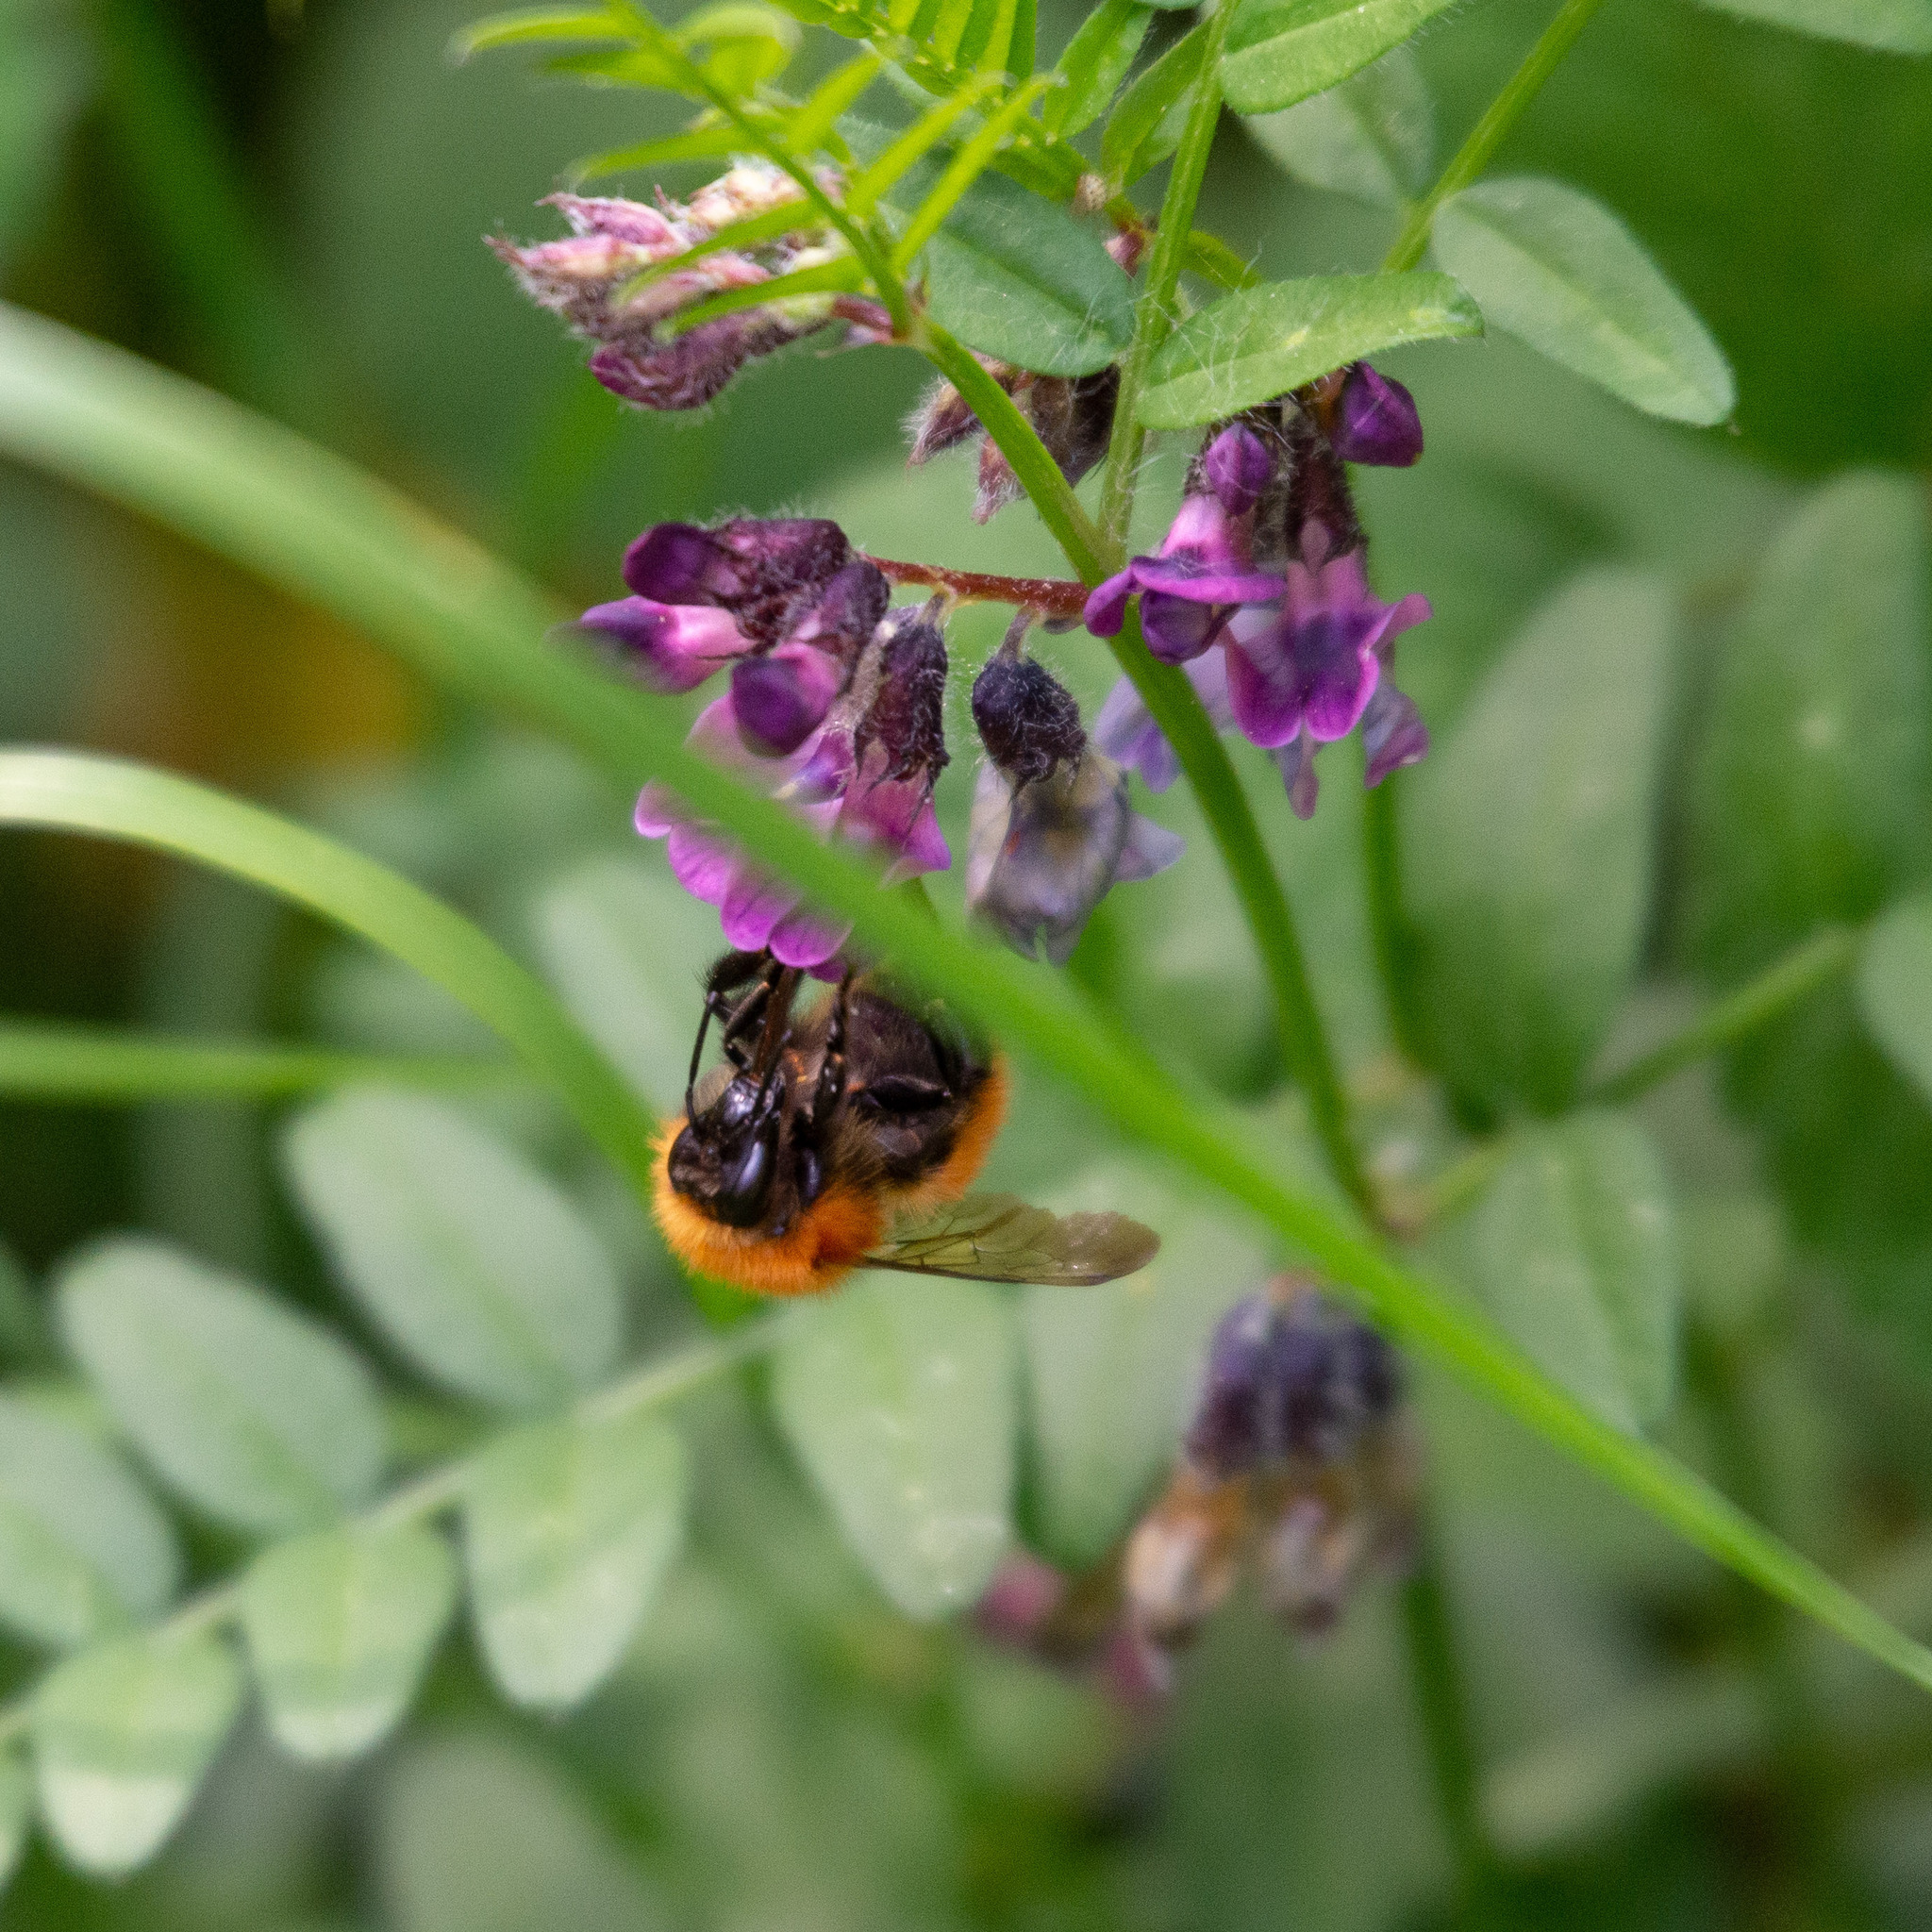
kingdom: Animalia
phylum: Arthropoda
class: Insecta
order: Hymenoptera
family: Apidae
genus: Bombus
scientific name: Bombus pascuorum
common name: Common carder bee
